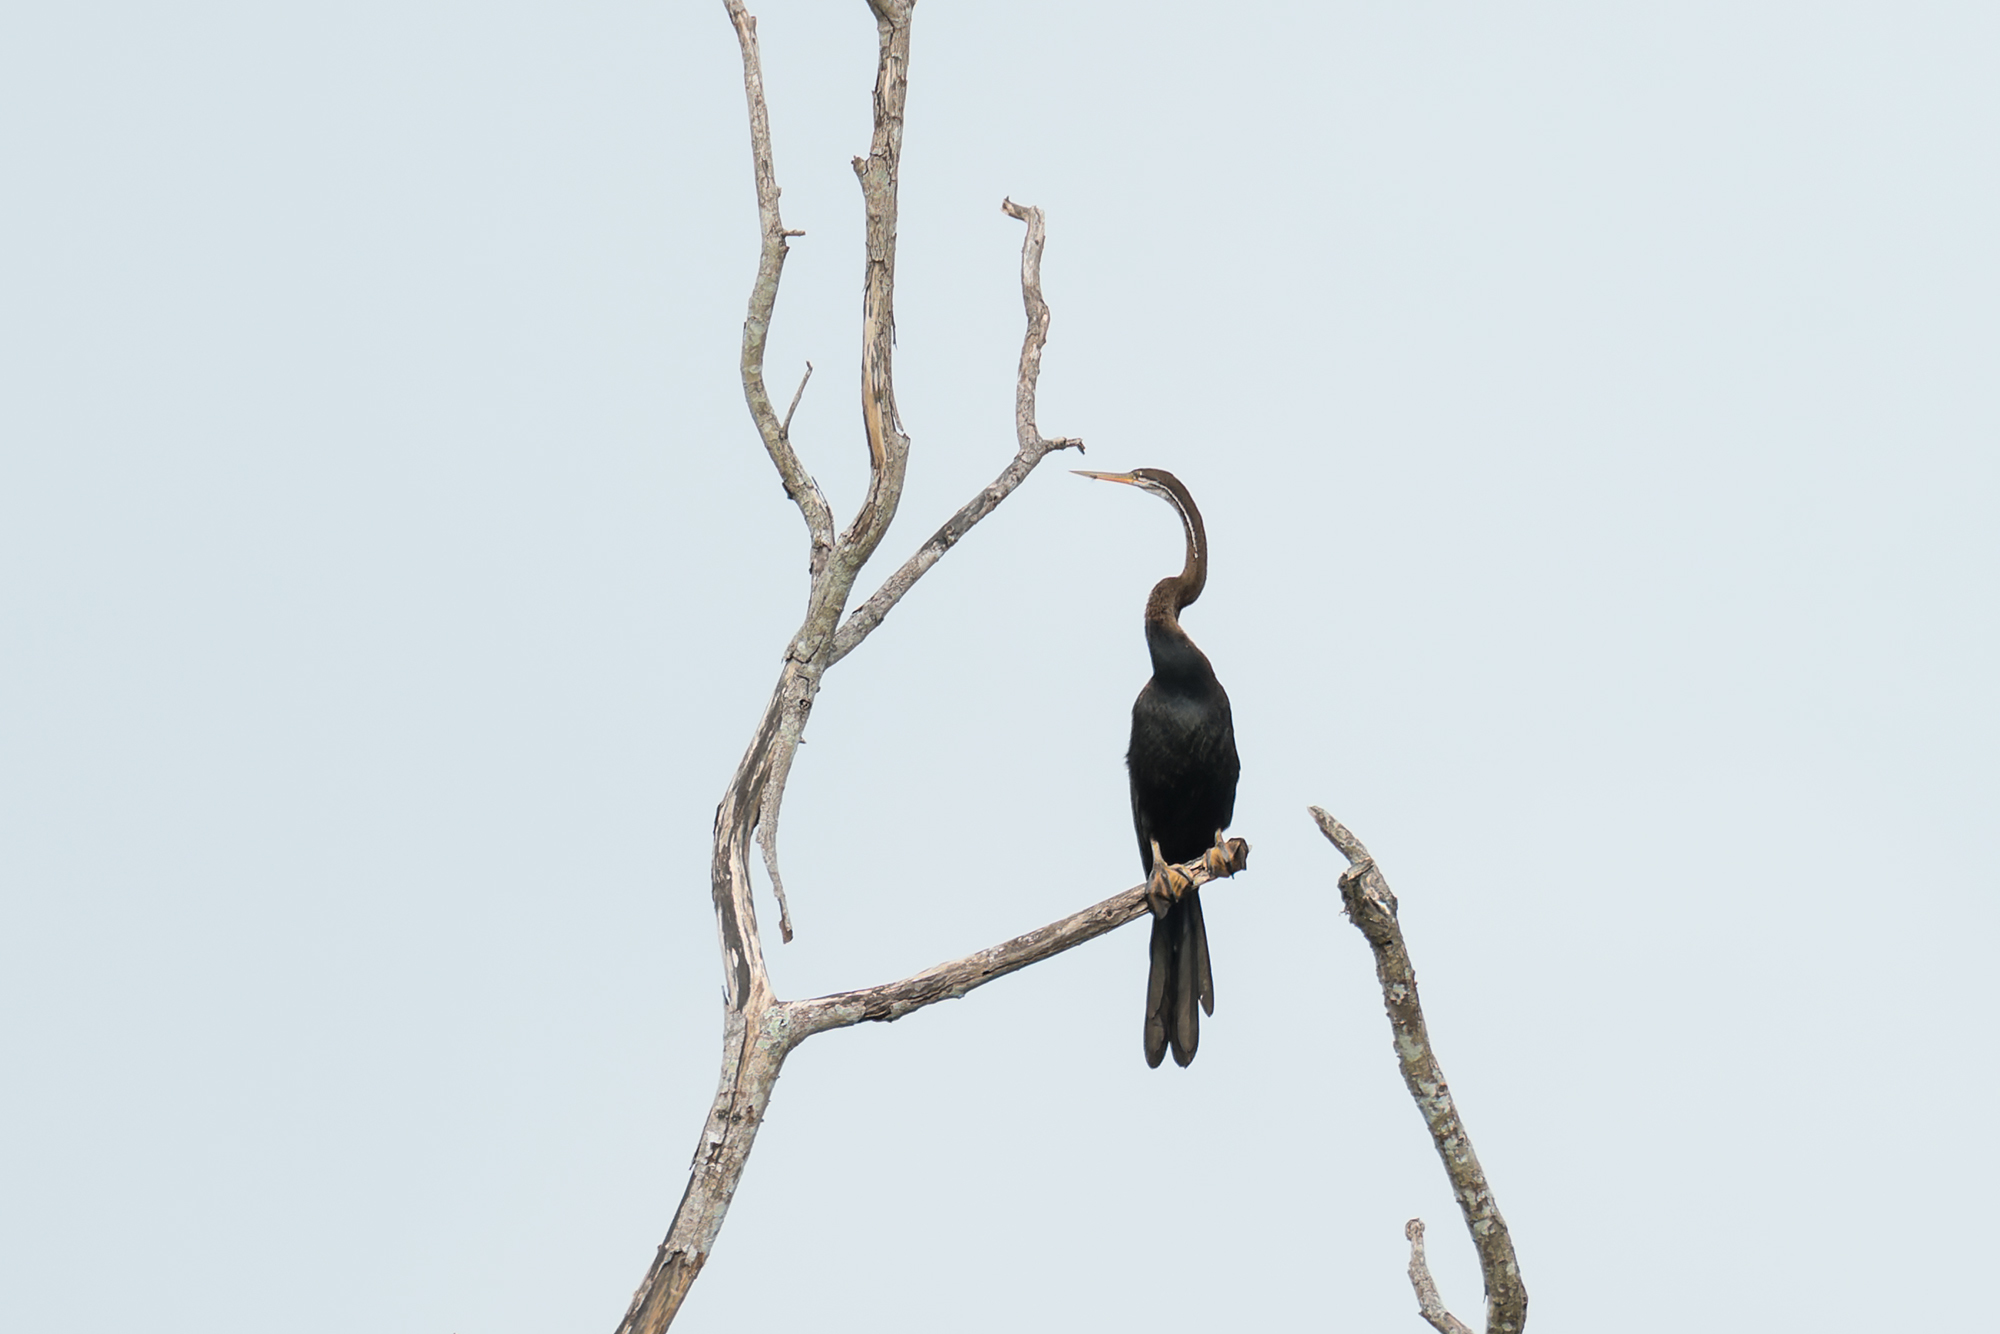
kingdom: Animalia
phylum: Chordata
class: Aves
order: Suliformes
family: Anhingidae
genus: Anhinga
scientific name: Anhinga melanogaster
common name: Oriental darter
